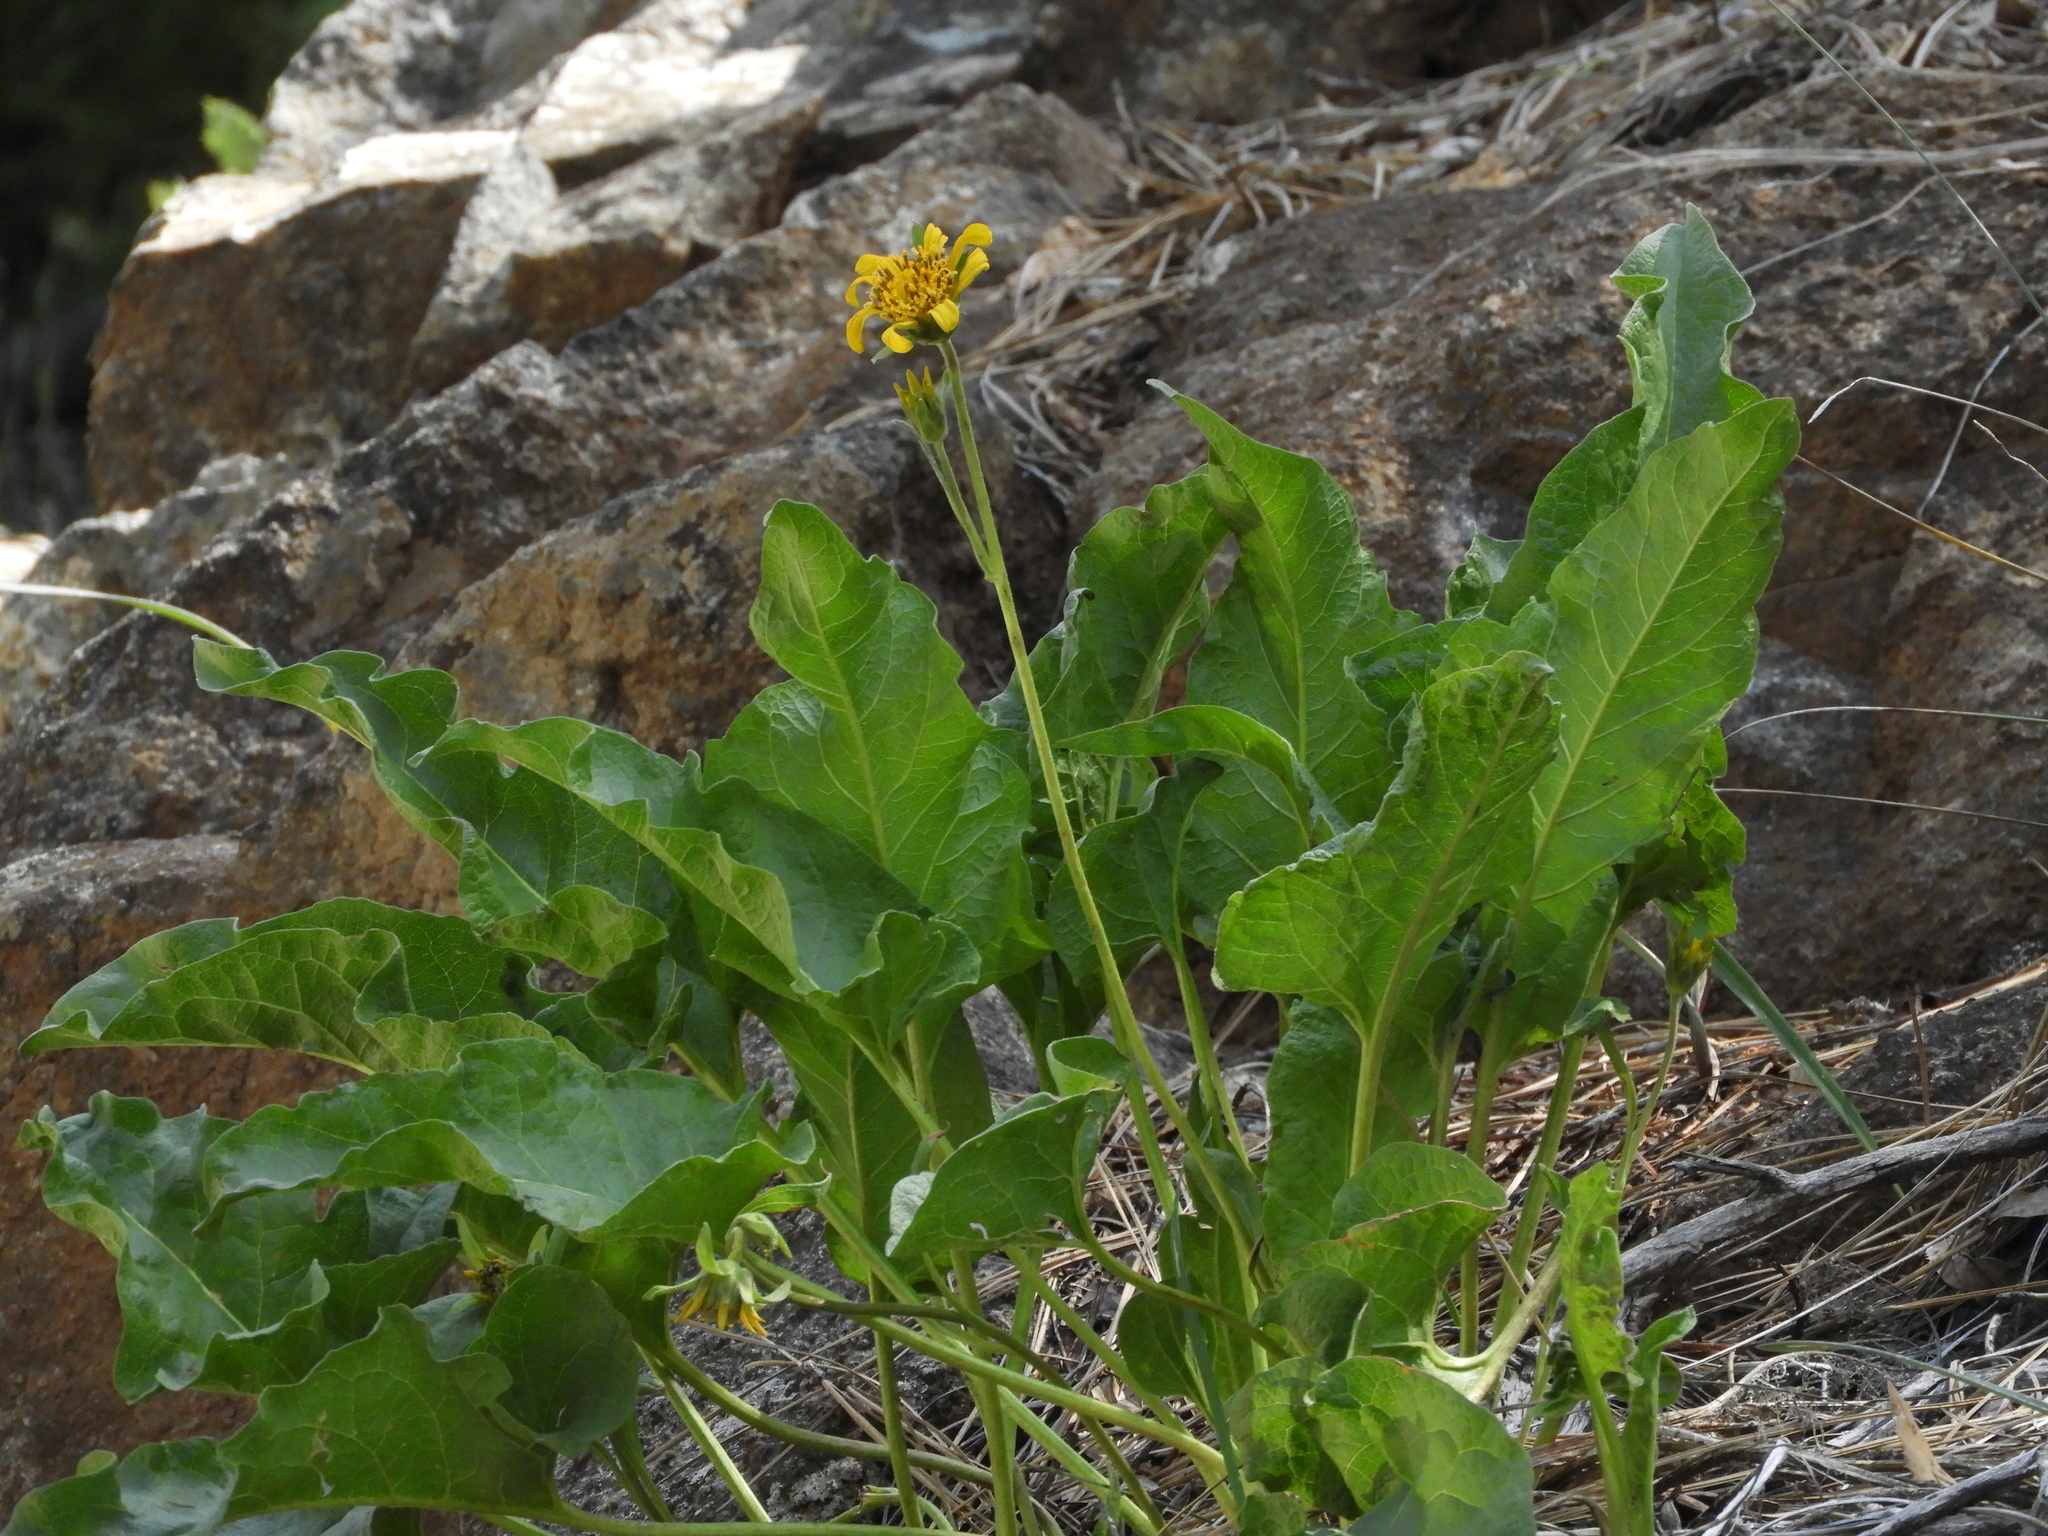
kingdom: Plantae
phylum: Tracheophyta
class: Magnoliopsida
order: Asterales
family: Asteraceae
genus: Balsamorhiza
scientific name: Balsamorhiza deltoidea
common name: Deltoid balsamroot
